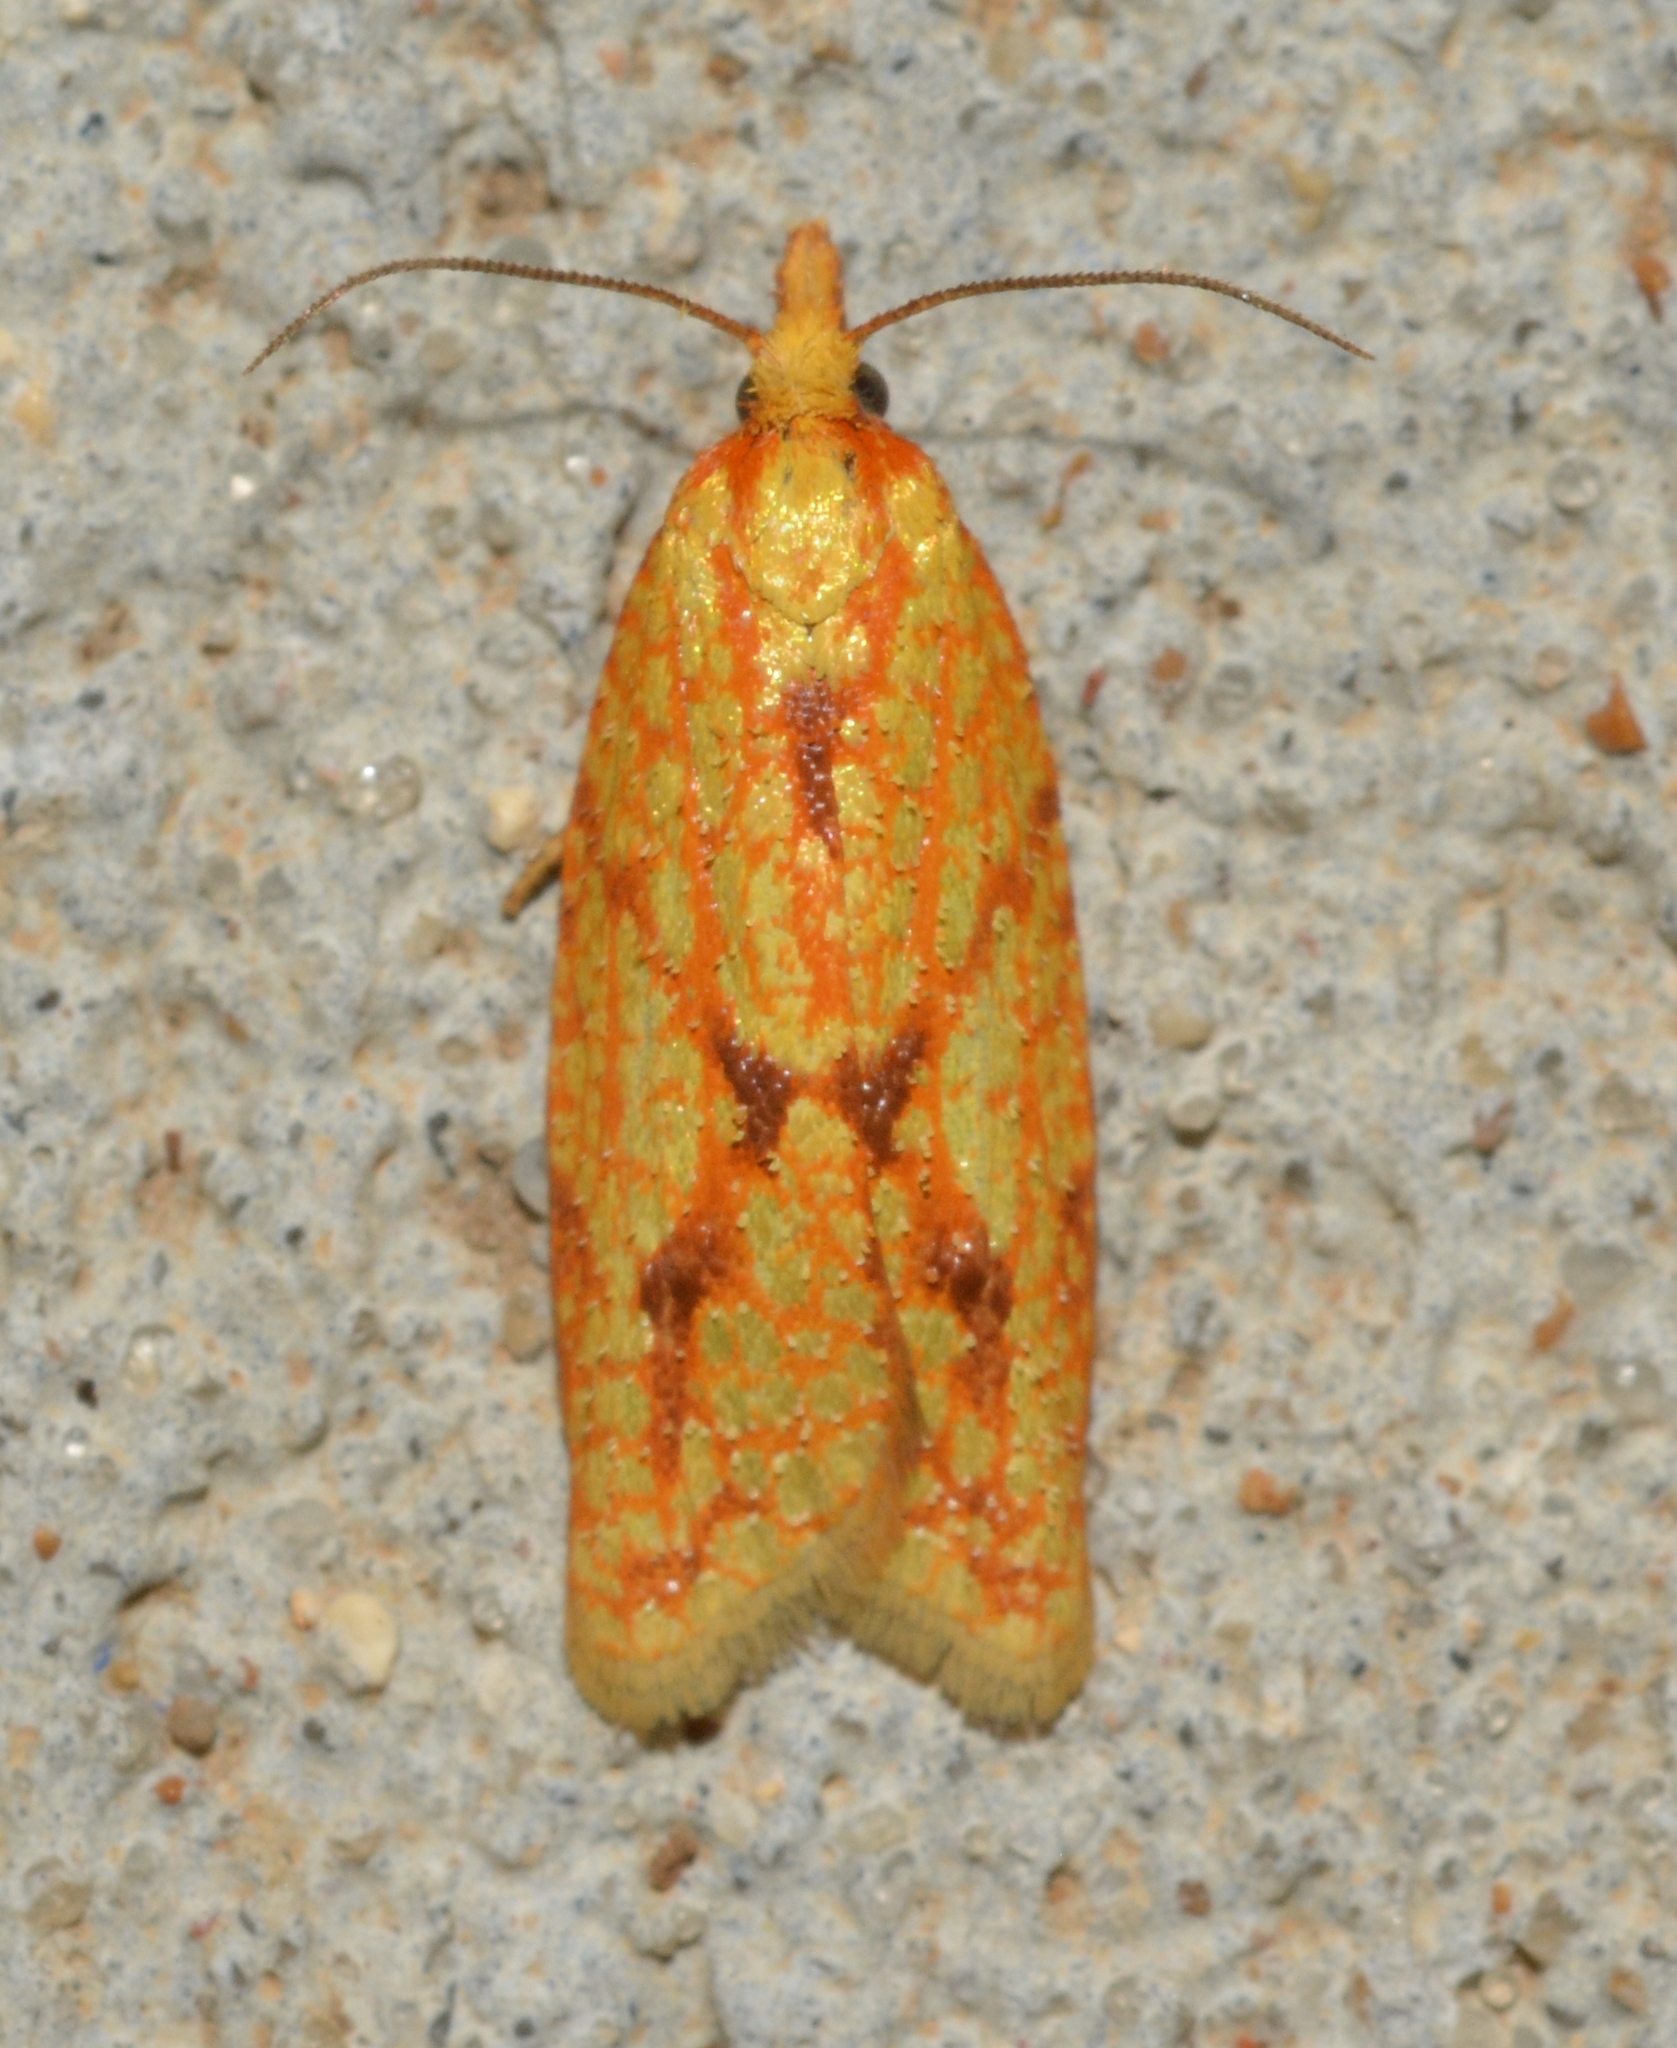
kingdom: Animalia
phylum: Arthropoda
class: Insecta
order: Lepidoptera
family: Tortricidae
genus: Sparganothis
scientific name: Sparganothis sulfureana
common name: Sparganothis fruitworm moth
